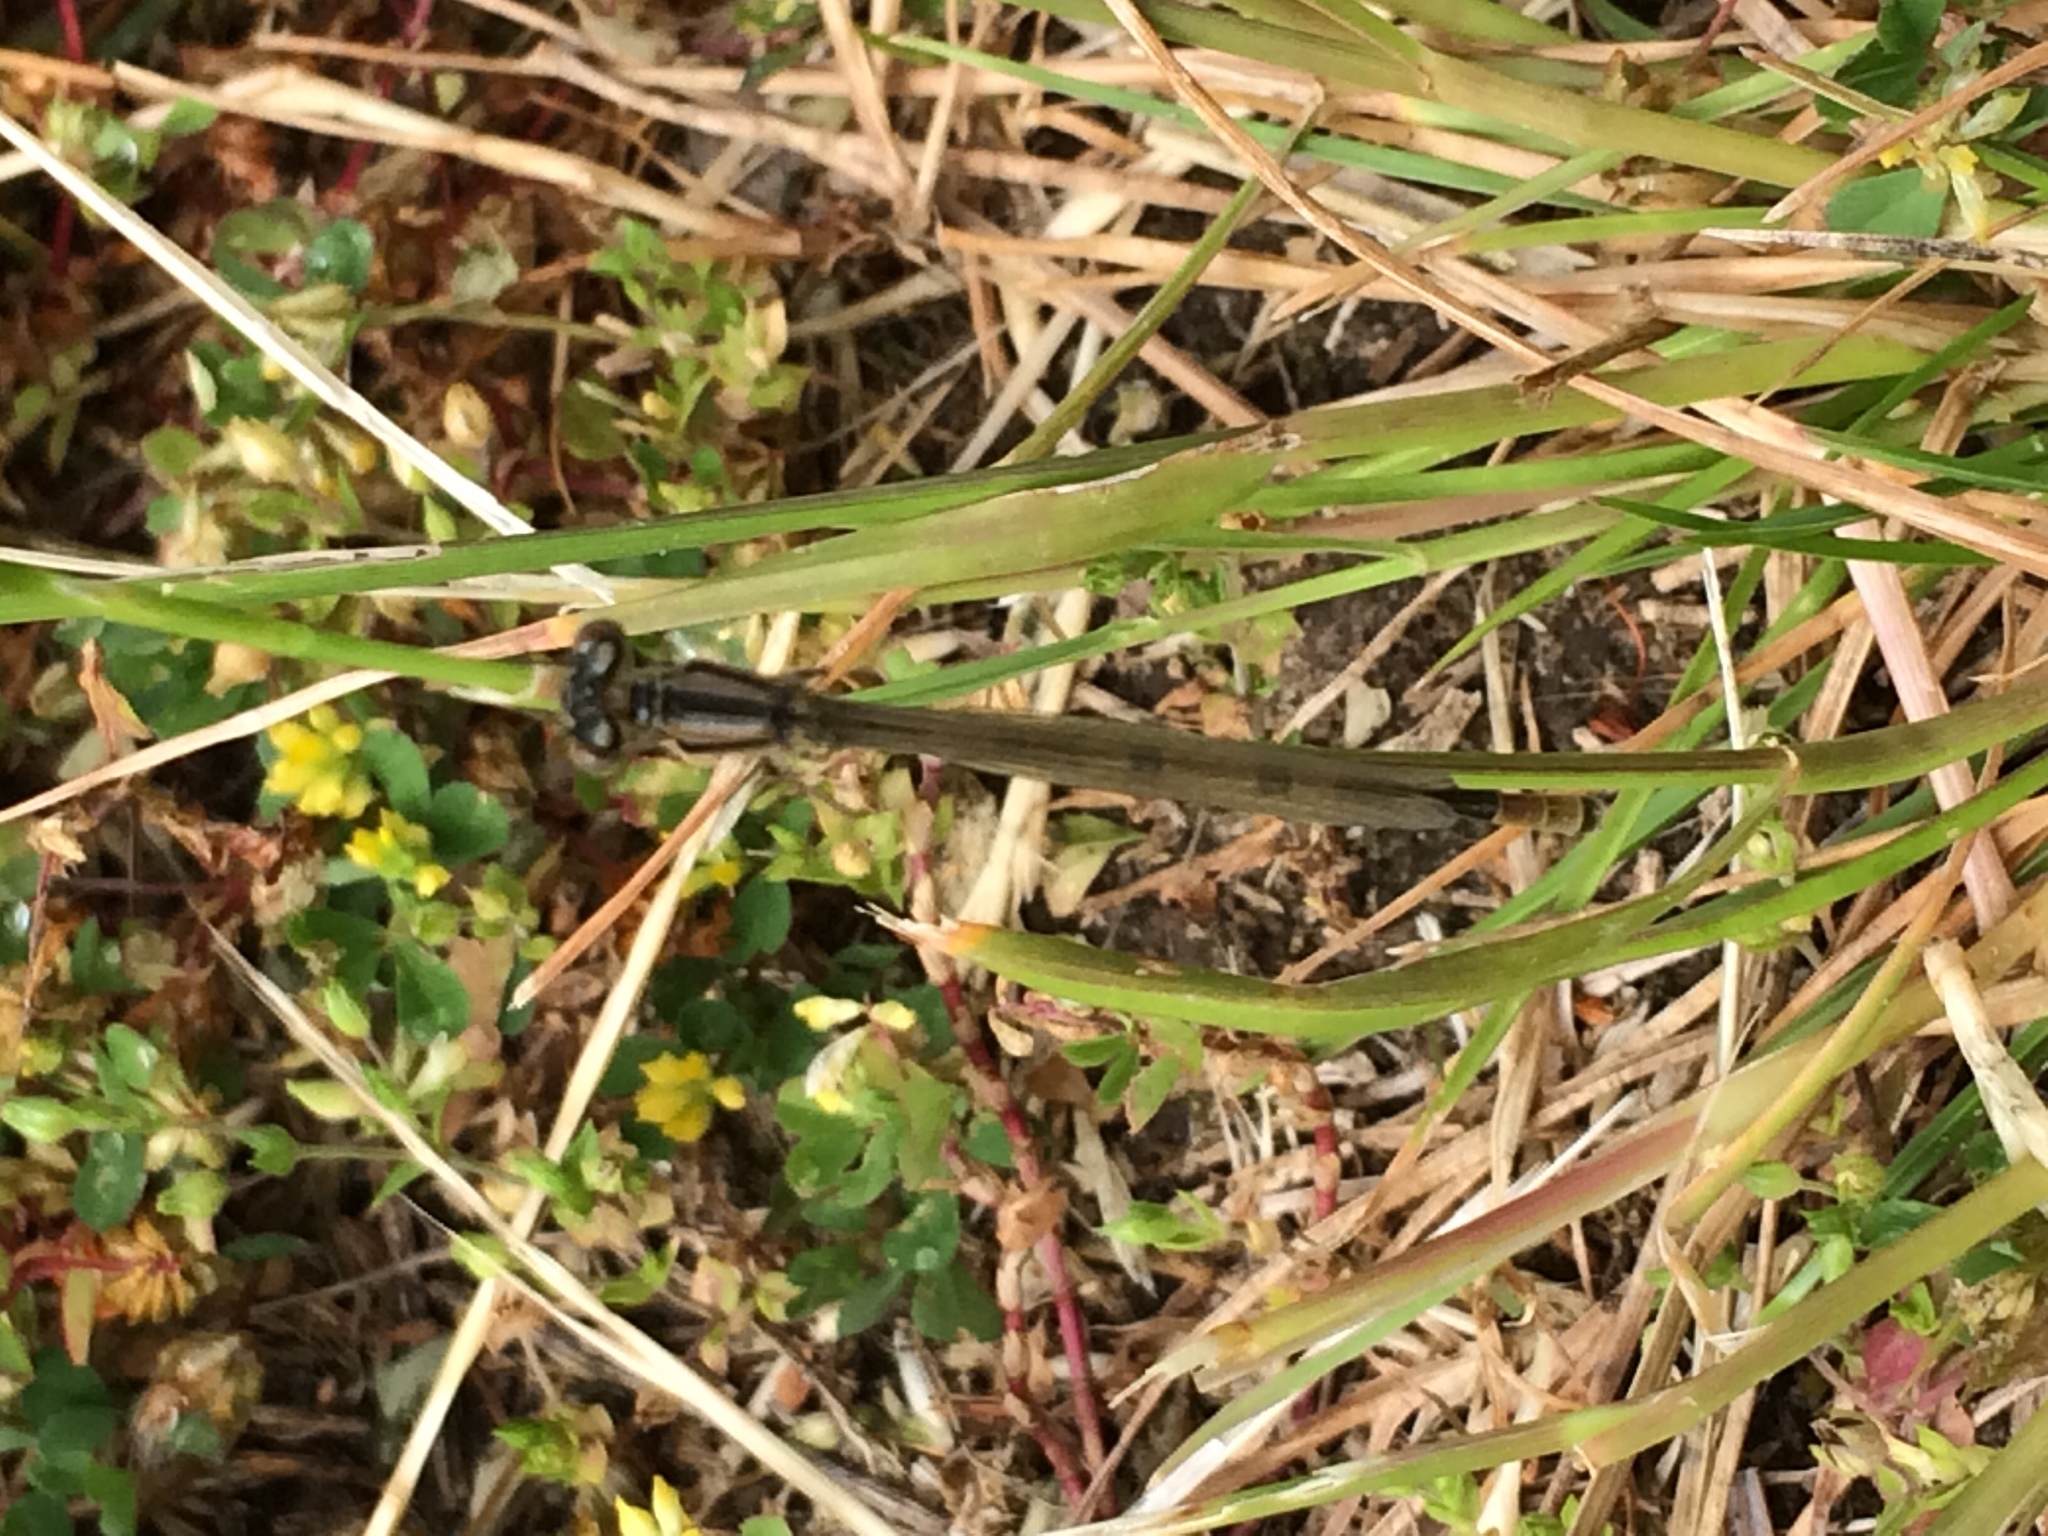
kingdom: Animalia
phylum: Arthropoda
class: Insecta
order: Odonata
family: Coenagrionidae
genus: Enallagma
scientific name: Enallagma cyathigerum
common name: Common blue damselfly
